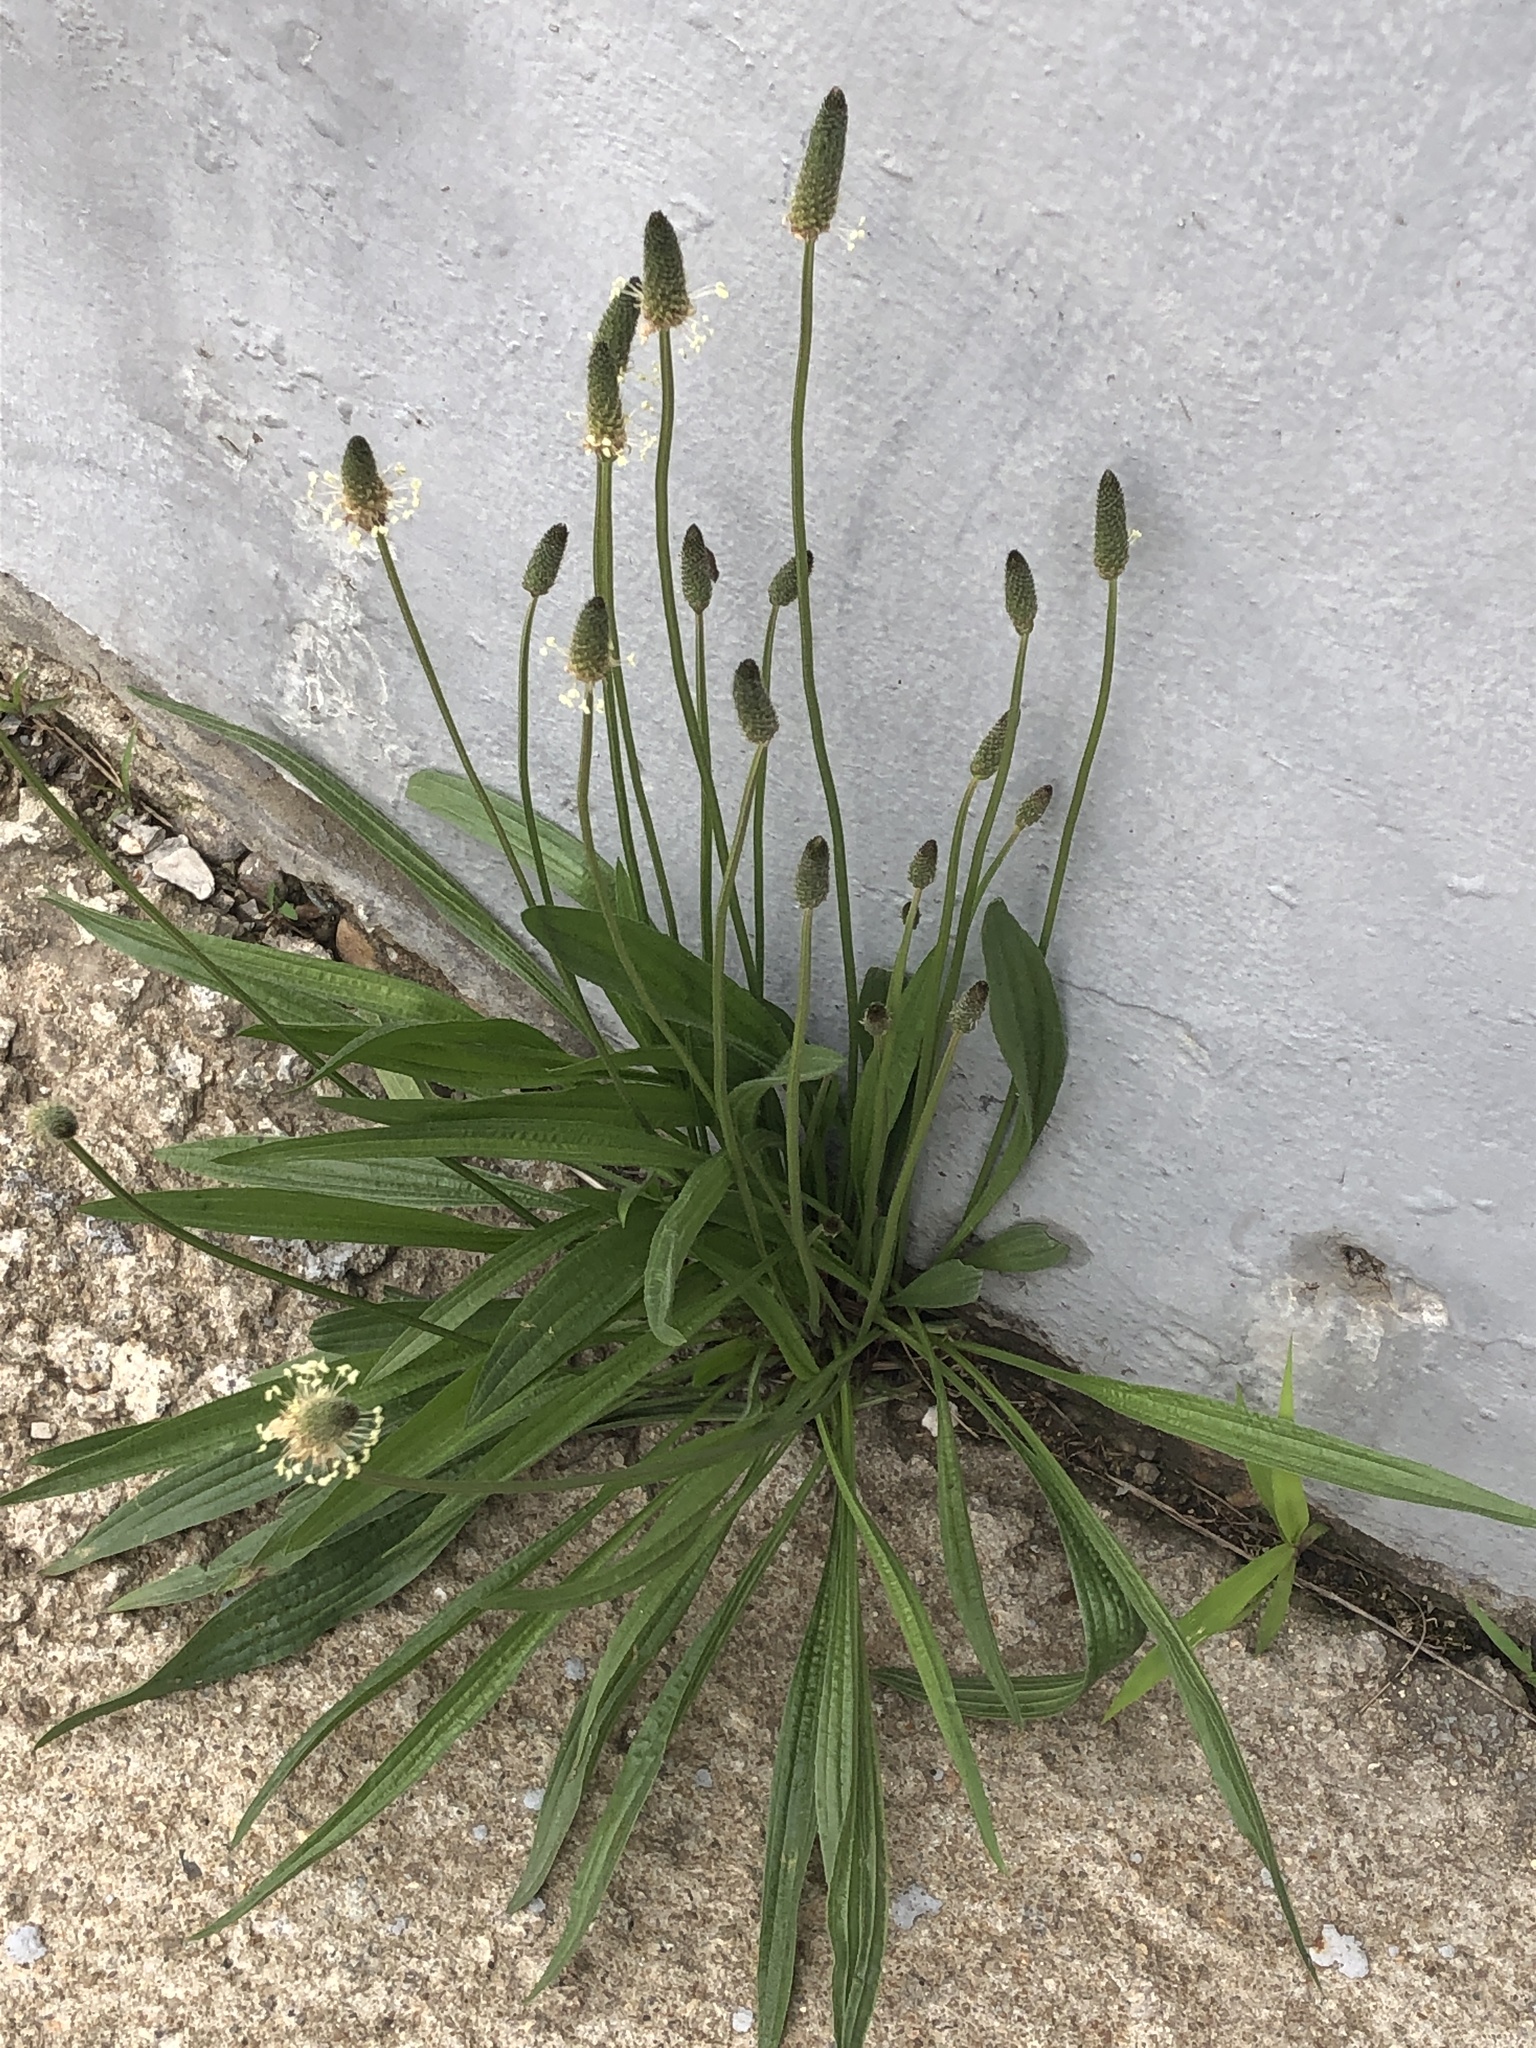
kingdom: Plantae
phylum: Tracheophyta
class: Magnoliopsida
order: Lamiales
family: Plantaginaceae
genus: Plantago
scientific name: Plantago lanceolata
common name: Ribwort plantain
